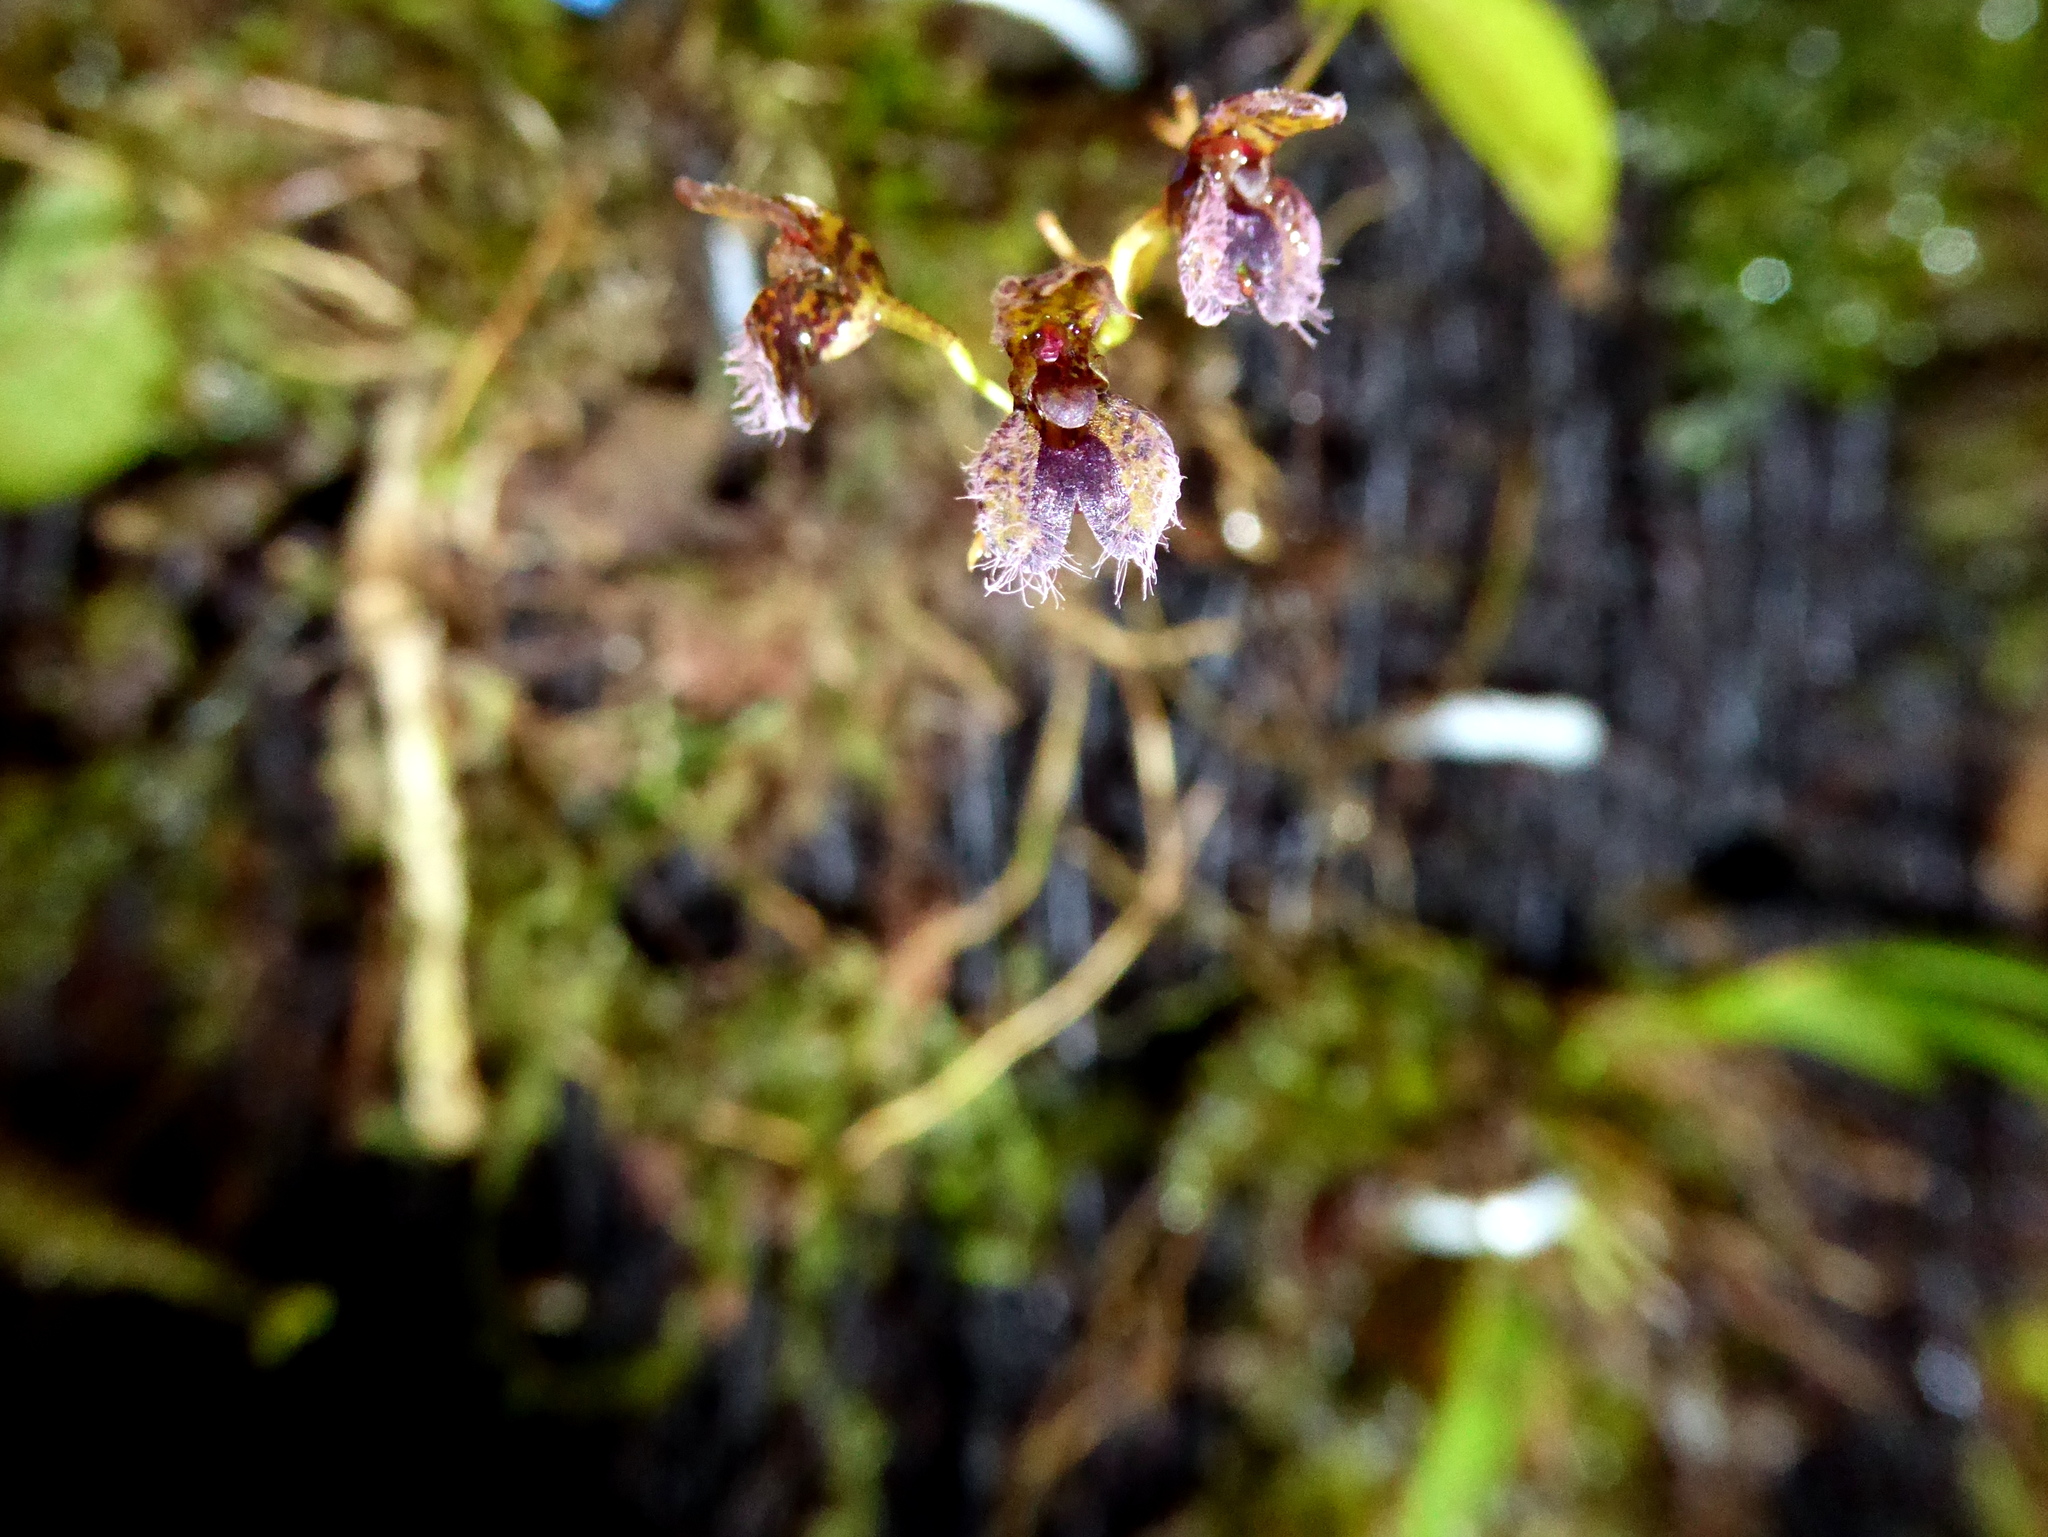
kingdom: Plantae
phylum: Tracheophyta
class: Liliopsida
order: Asparagales
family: Orchidaceae
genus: Stelis
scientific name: Stelis villosa
